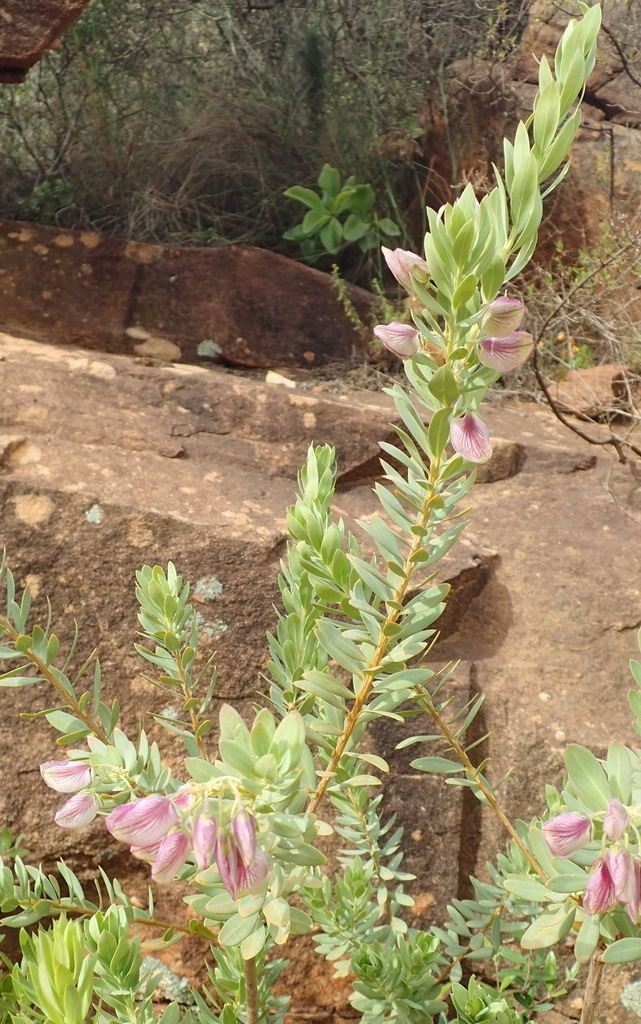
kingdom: Plantae
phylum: Tracheophyta
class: Magnoliopsida
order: Fabales
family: Polygalaceae
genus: Polygala
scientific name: Polygala myrtifolia
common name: Myrtle-leaf milkwort
